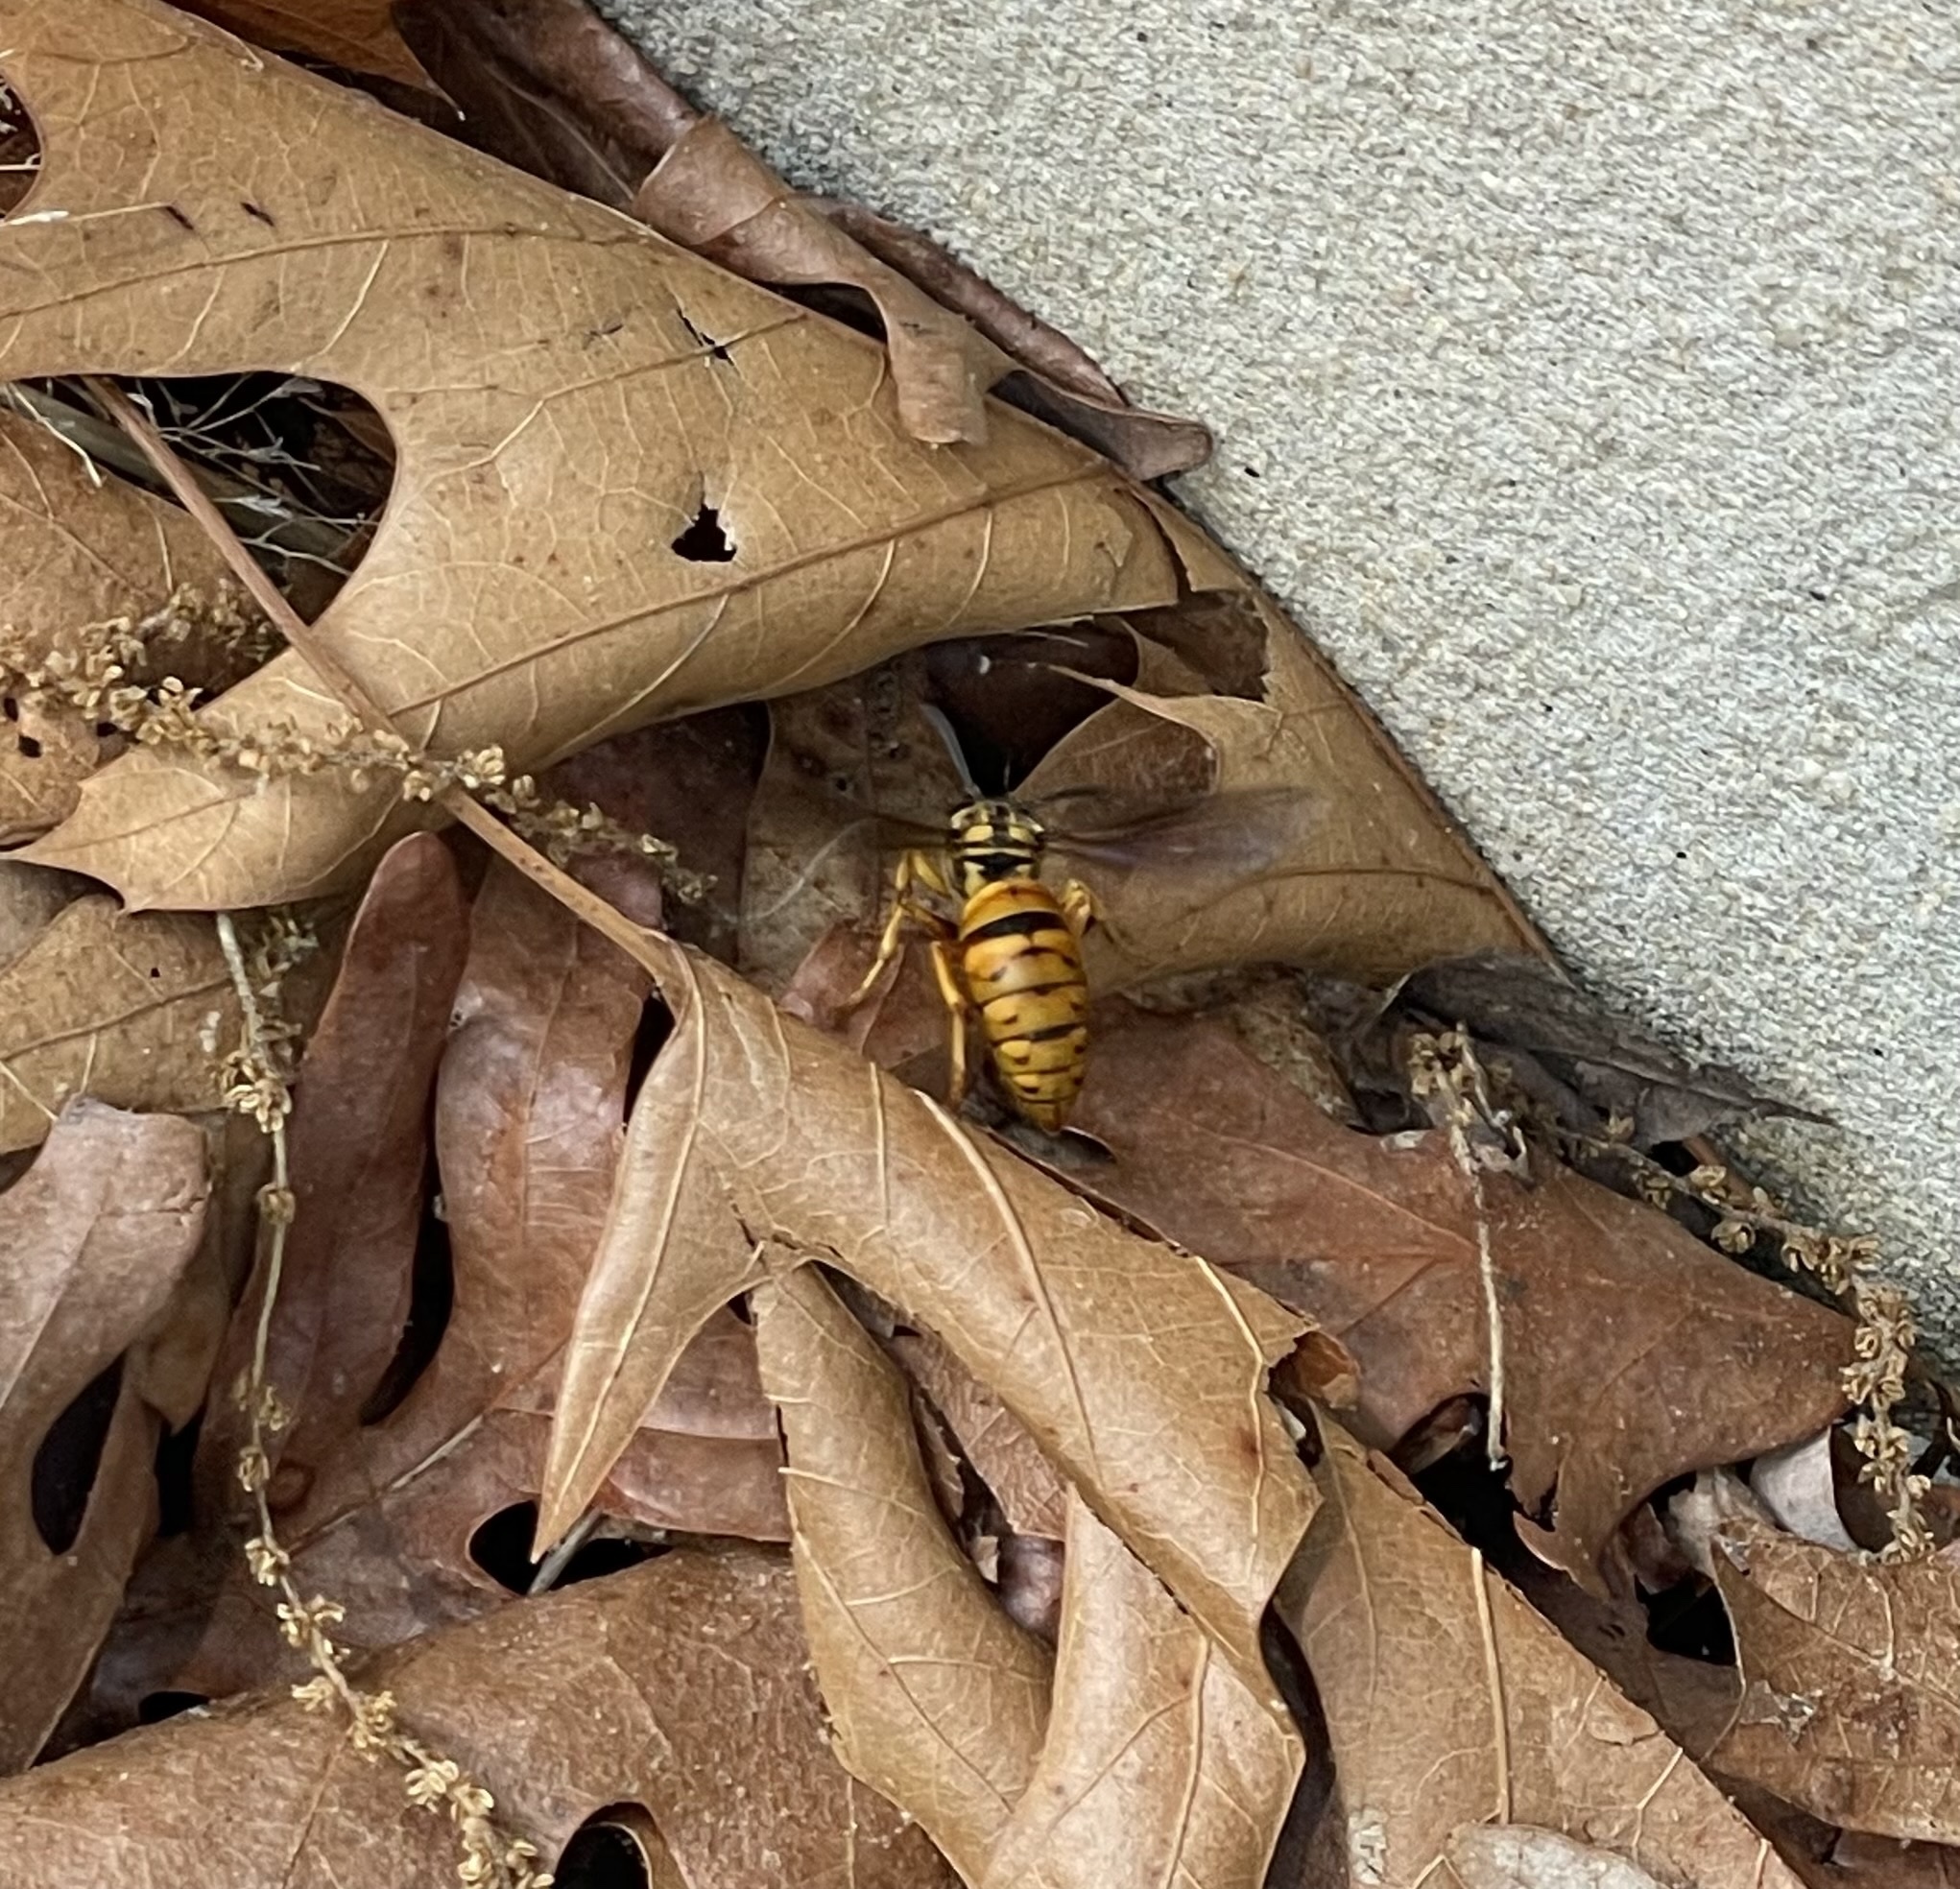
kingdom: Animalia
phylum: Arthropoda
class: Insecta
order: Hymenoptera
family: Vespidae
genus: Vespula
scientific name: Vespula squamosa
